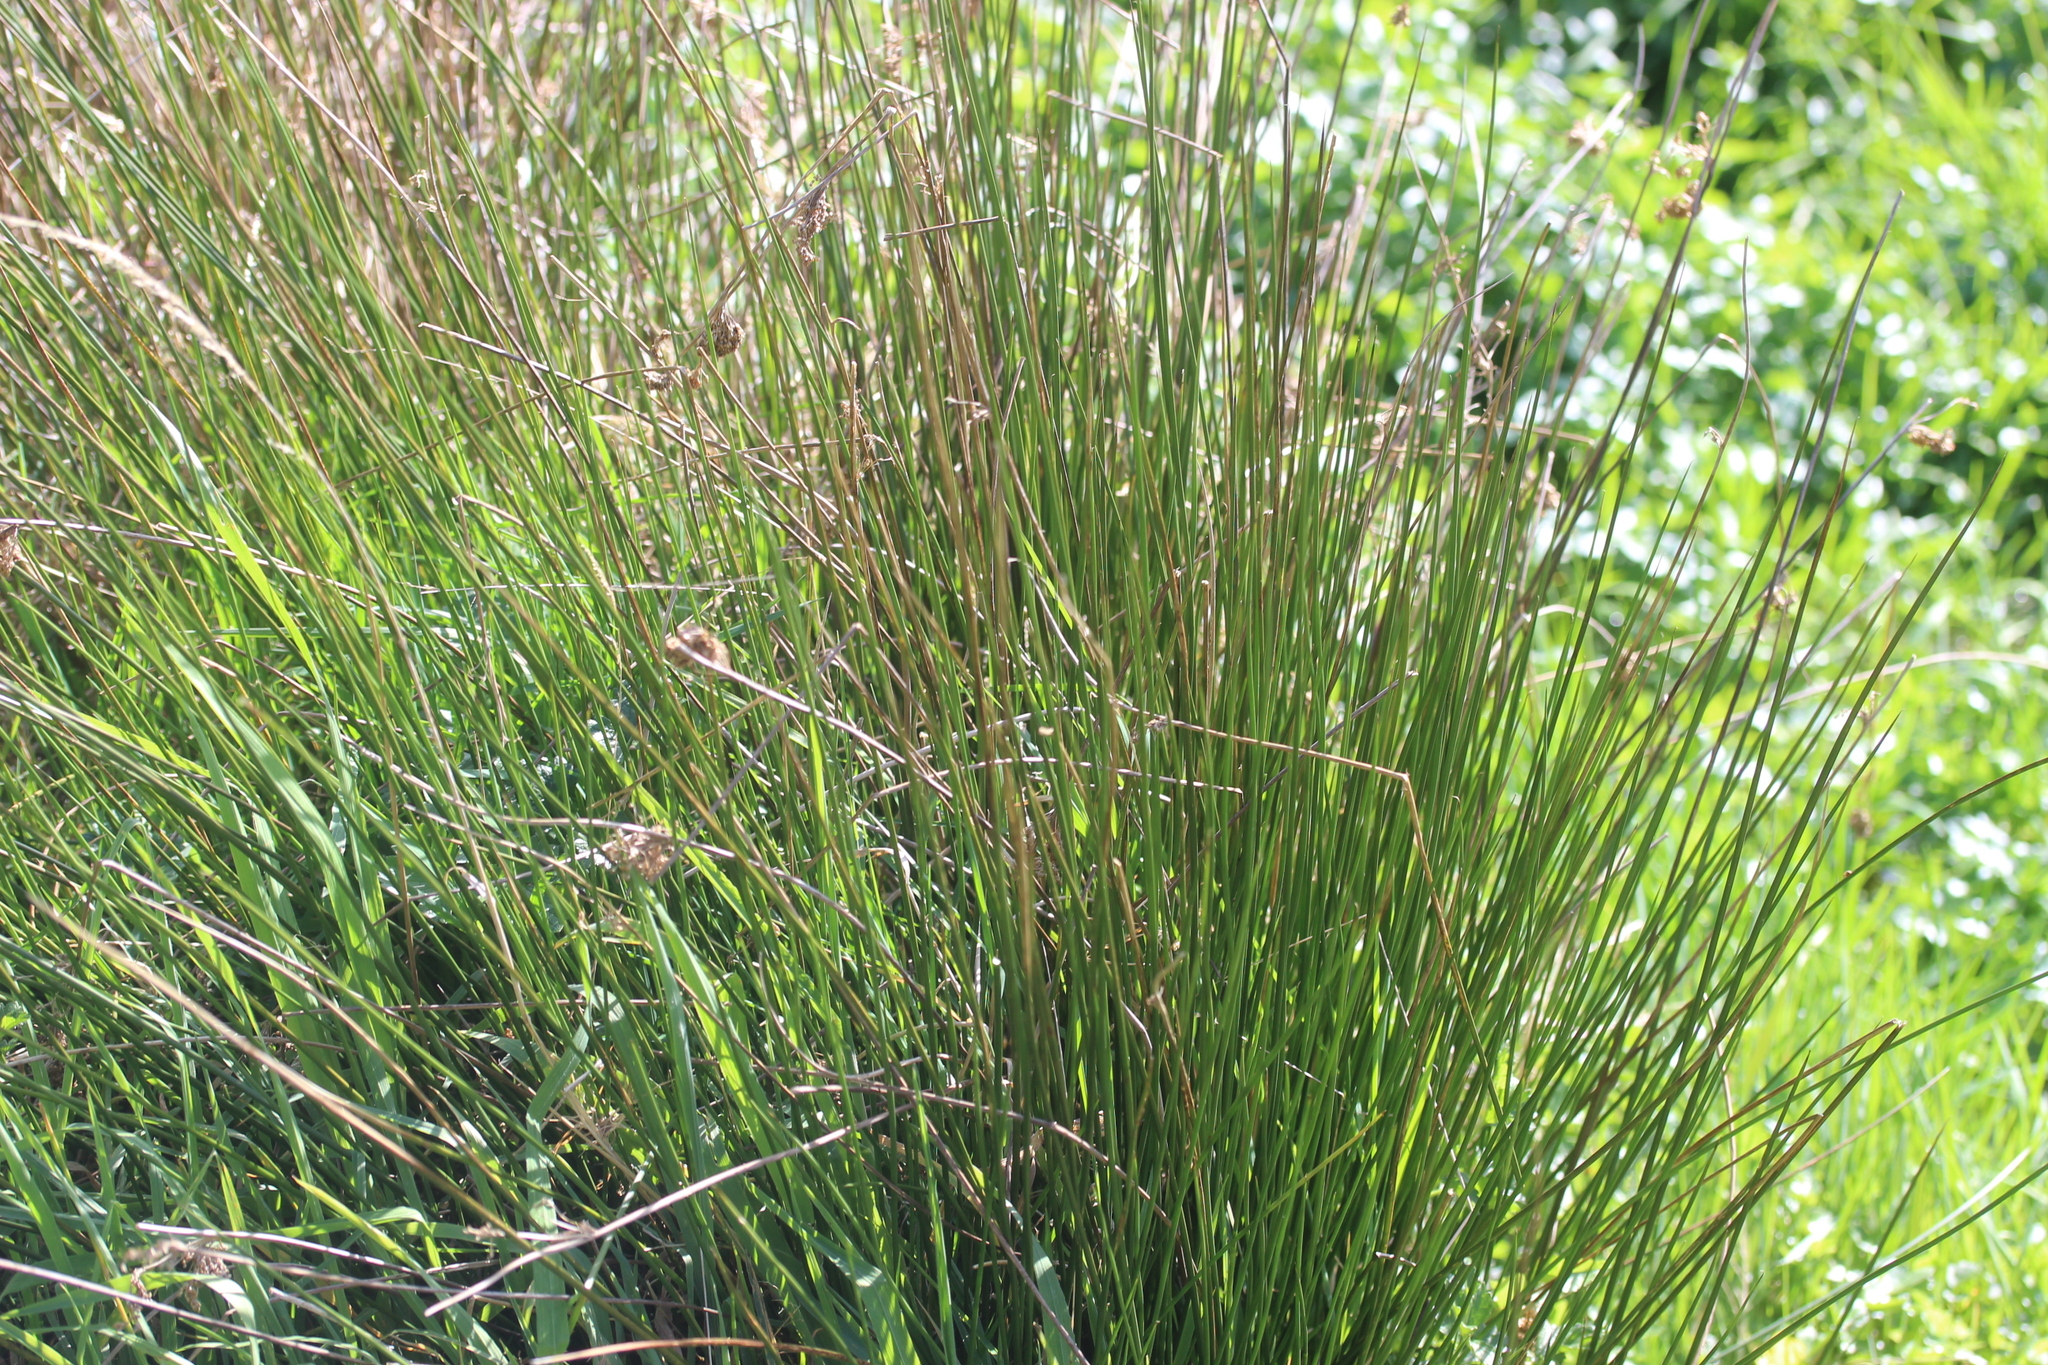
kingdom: Plantae
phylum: Tracheophyta
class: Liliopsida
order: Poales
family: Juncaceae
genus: Juncus
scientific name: Juncus effusus
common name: Soft rush
